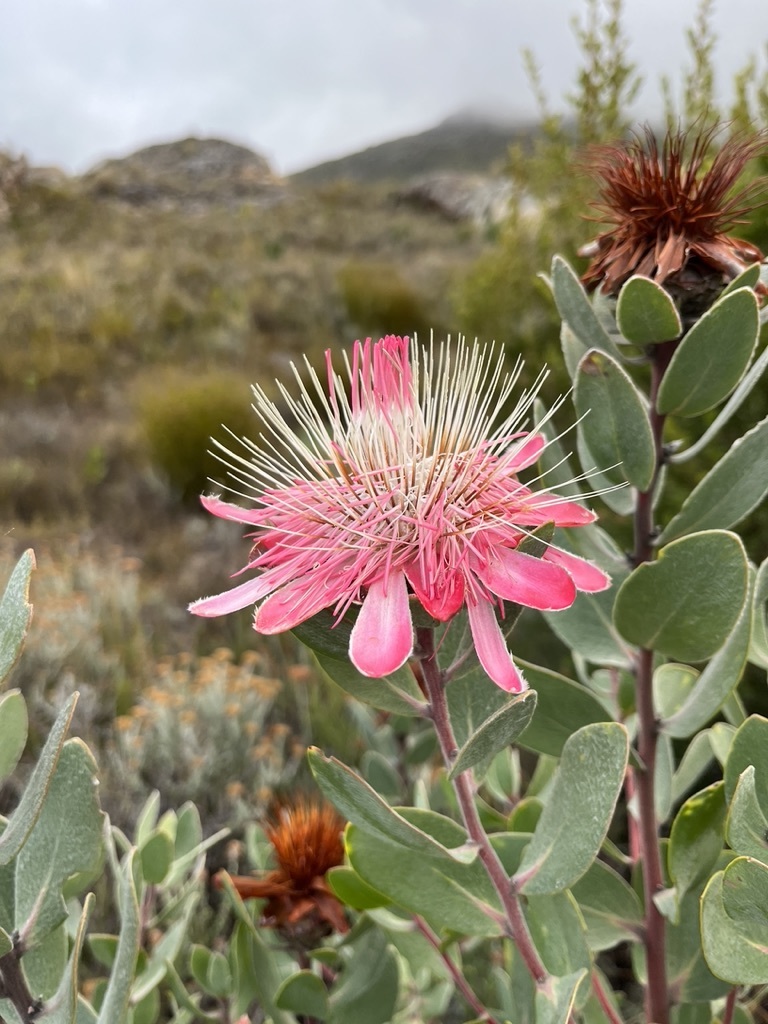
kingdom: Plantae
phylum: Tracheophyta
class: Magnoliopsida
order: Proteales
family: Proteaceae
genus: Protea
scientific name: Protea punctata
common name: Water sugarbush
